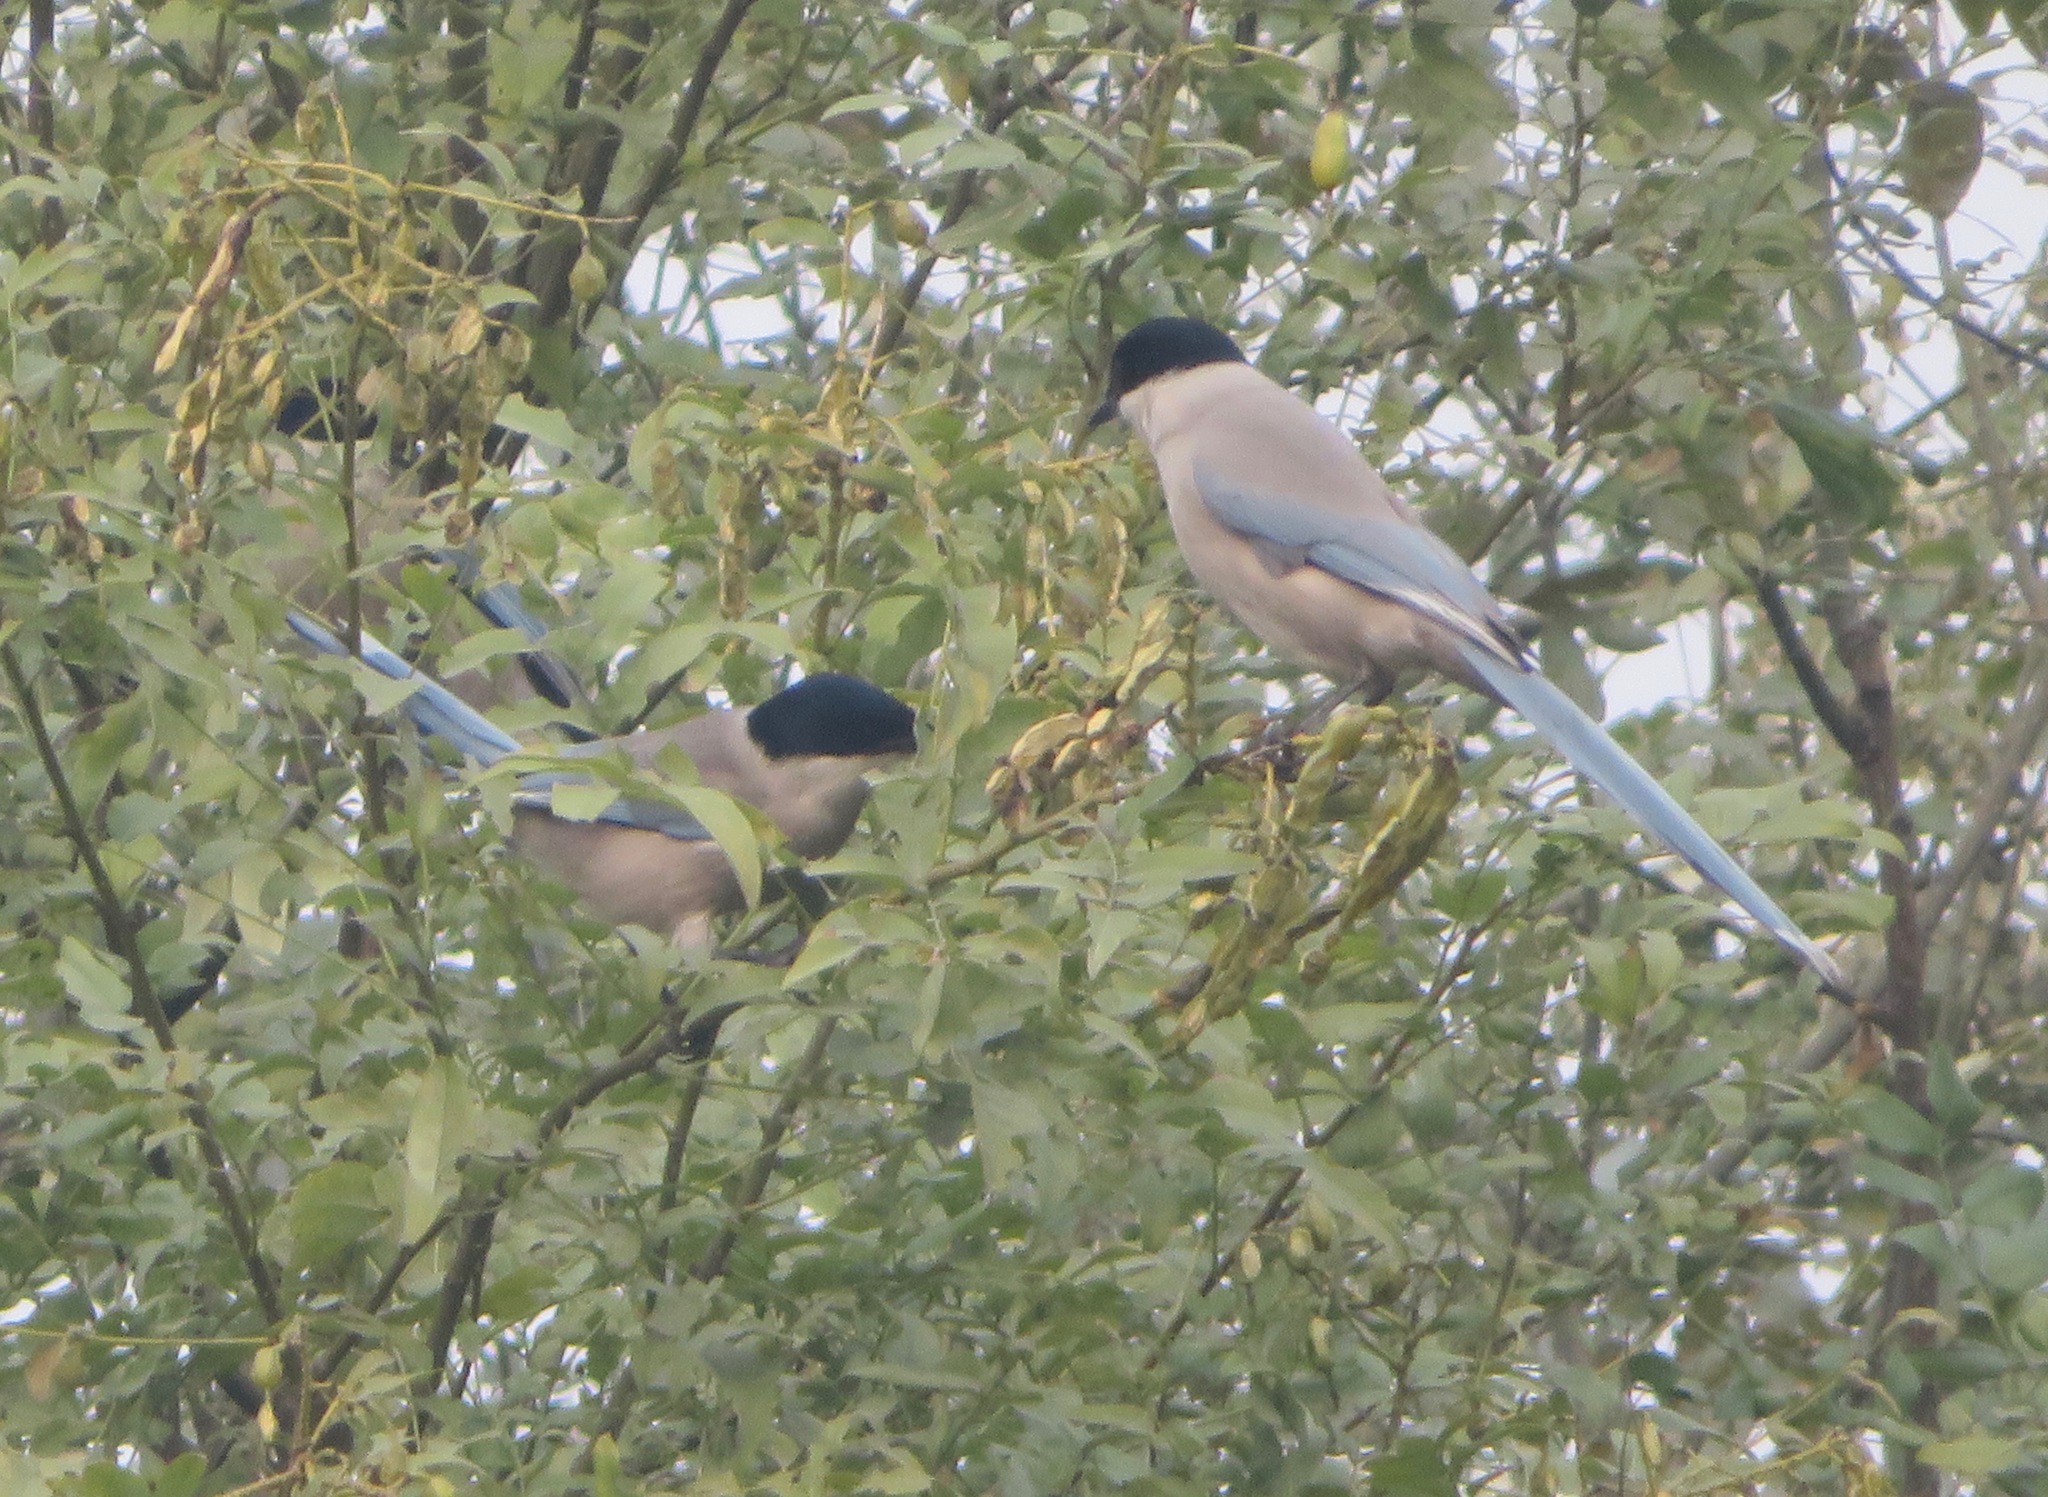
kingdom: Animalia
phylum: Chordata
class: Aves
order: Passeriformes
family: Corvidae
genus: Cyanopica
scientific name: Cyanopica cyanus
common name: Azure-winged magpie
